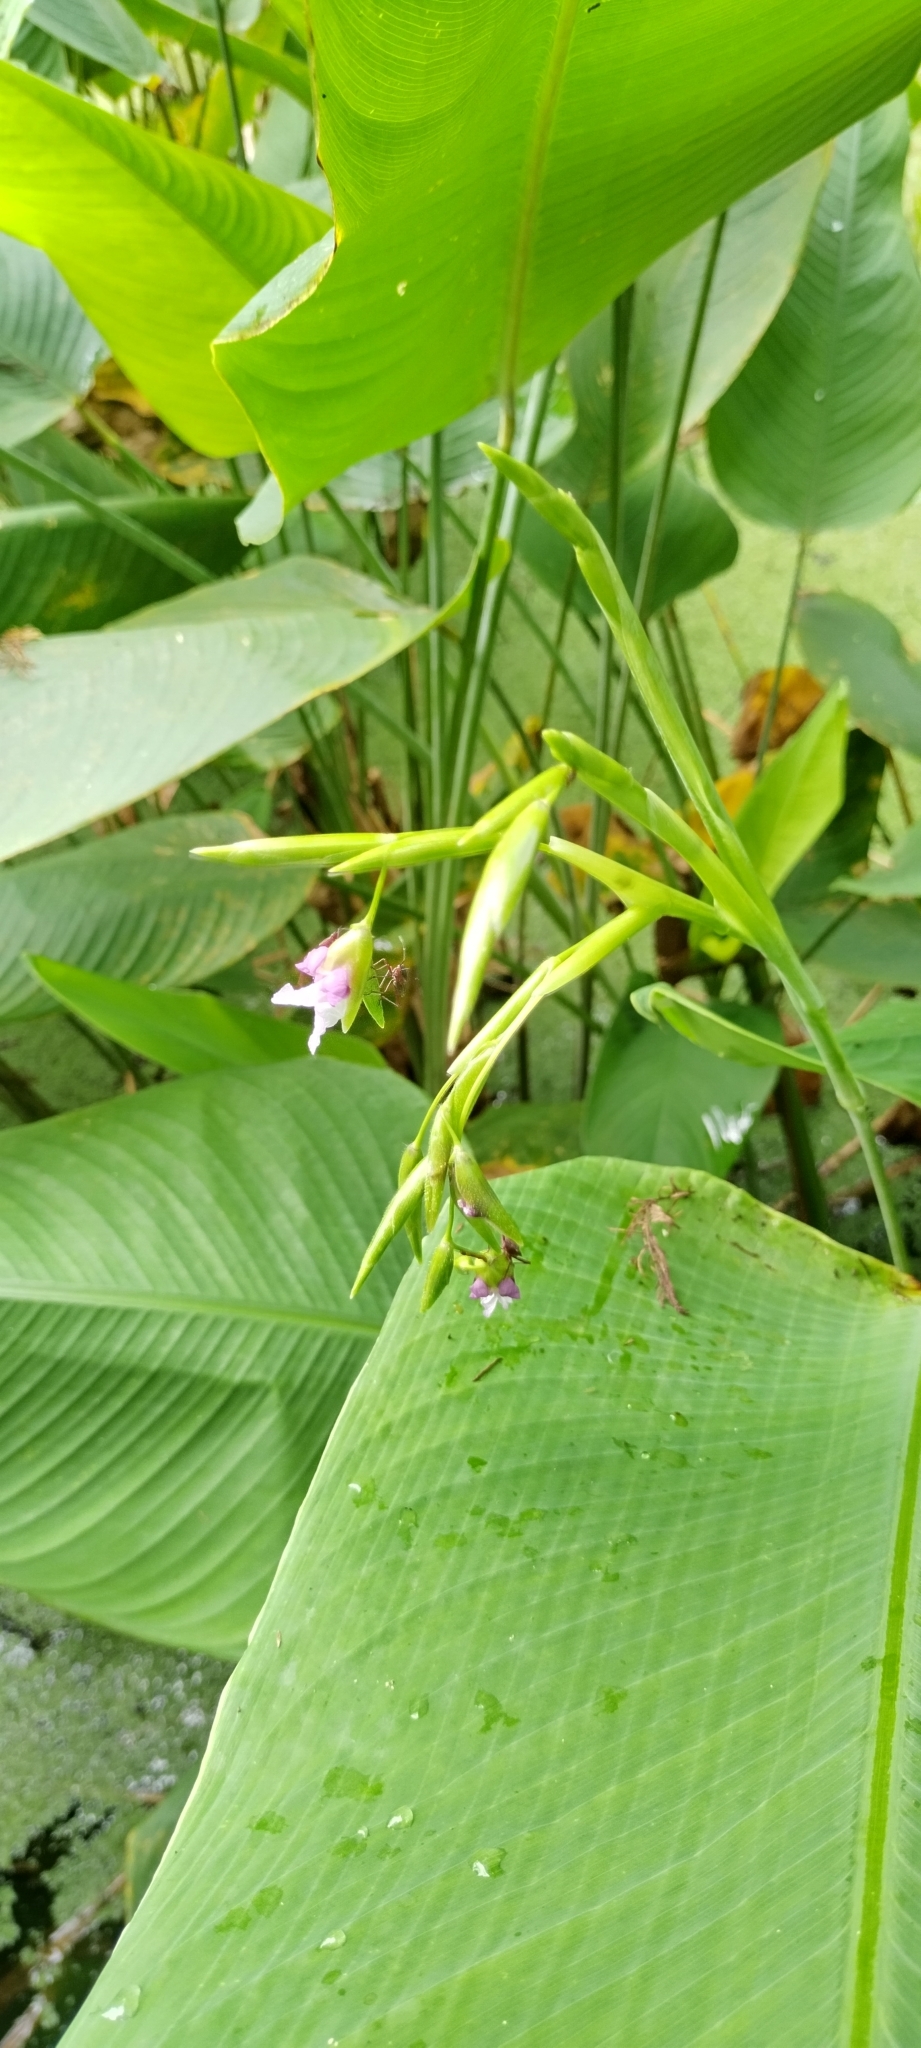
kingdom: Plantae
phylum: Tracheophyta
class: Liliopsida
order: Zingiberales
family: Marantaceae
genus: Thalia
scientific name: Thalia geniculata
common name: Arrowroot
